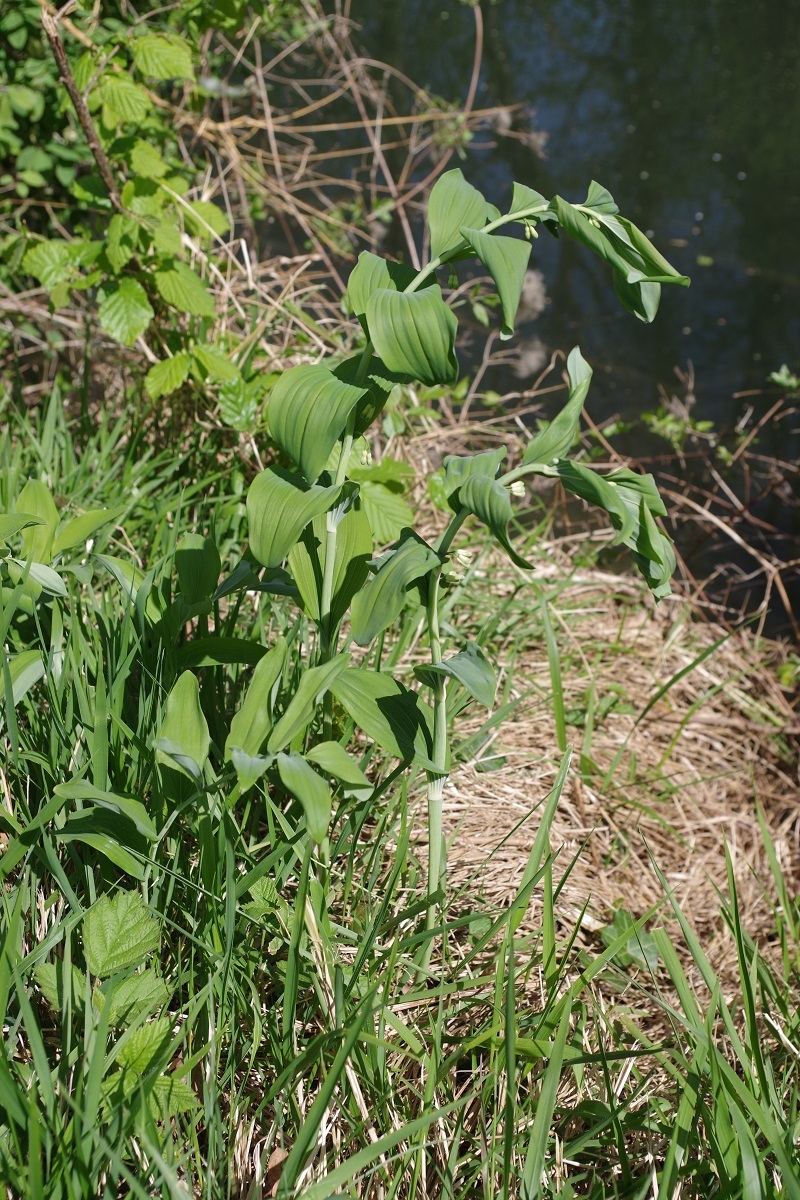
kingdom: Plantae
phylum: Tracheophyta
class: Liliopsida
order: Asparagales
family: Asparagaceae
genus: Polygonatum
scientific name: Polygonatum multiflorum
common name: Solomon's-seal
